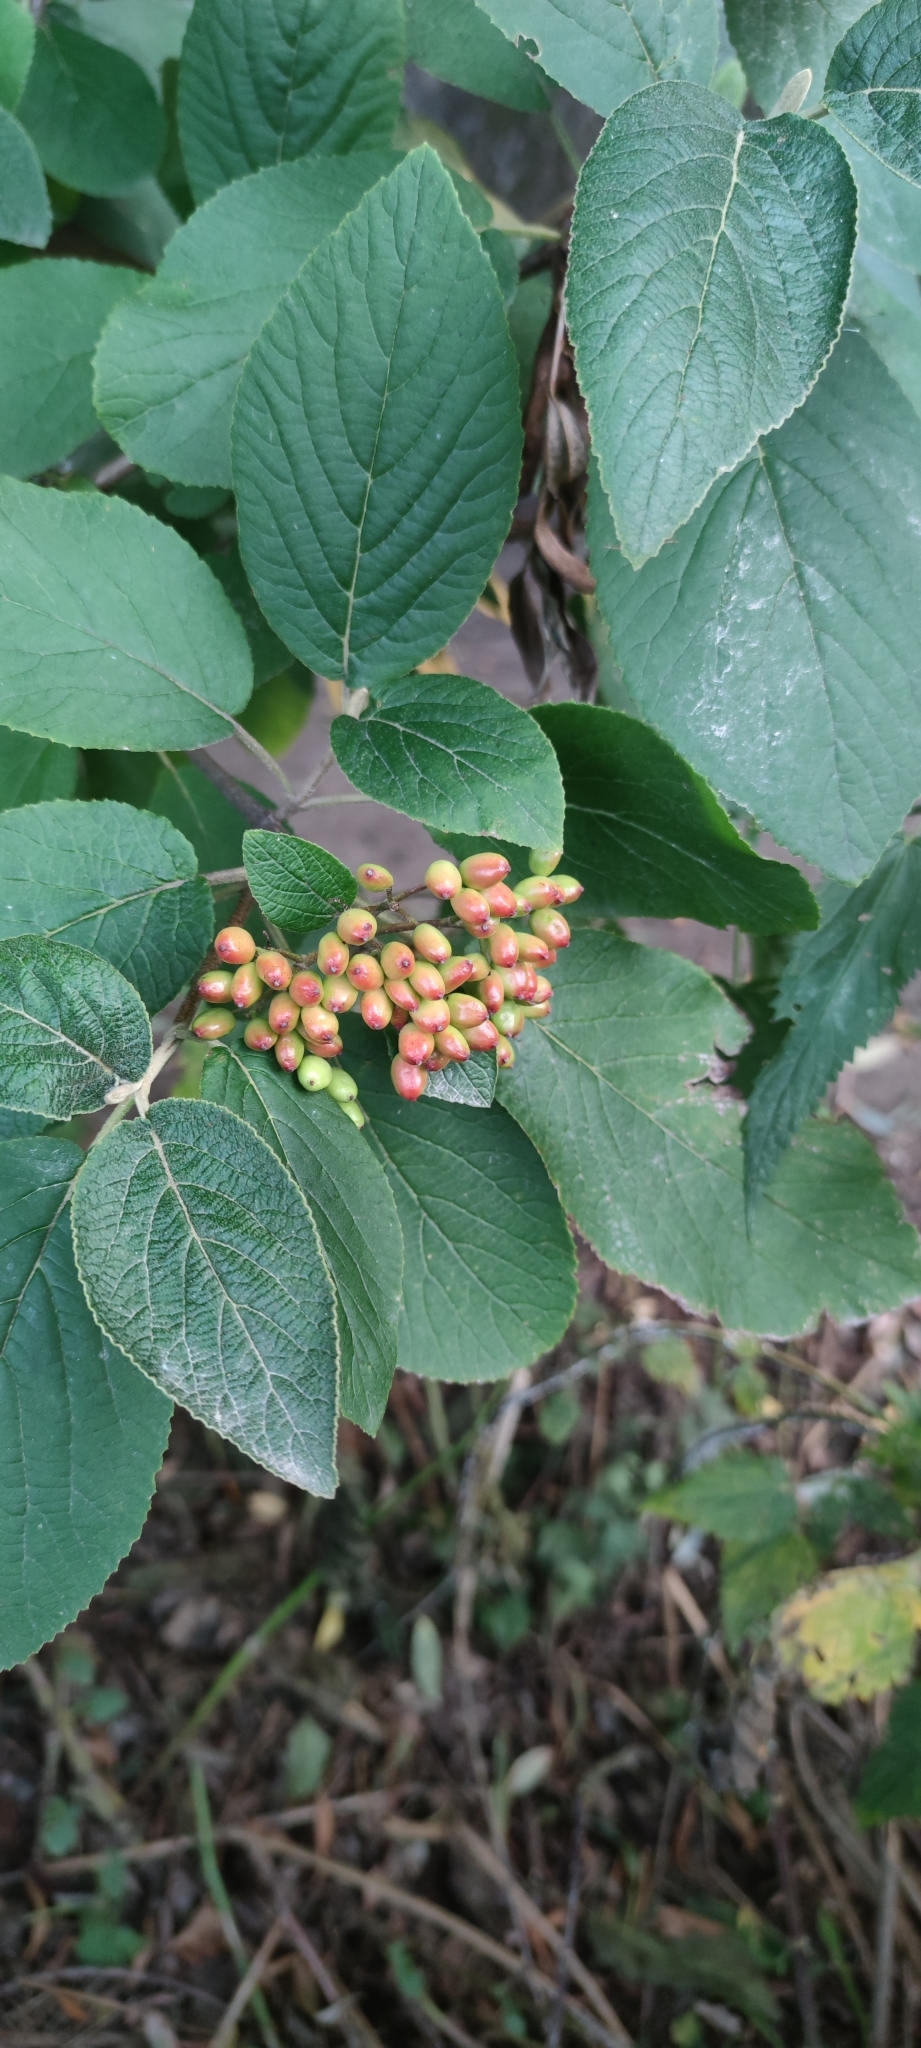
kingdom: Plantae
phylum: Tracheophyta
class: Magnoliopsida
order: Dipsacales
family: Viburnaceae
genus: Viburnum
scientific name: Viburnum lantana
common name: Wayfaring tree
